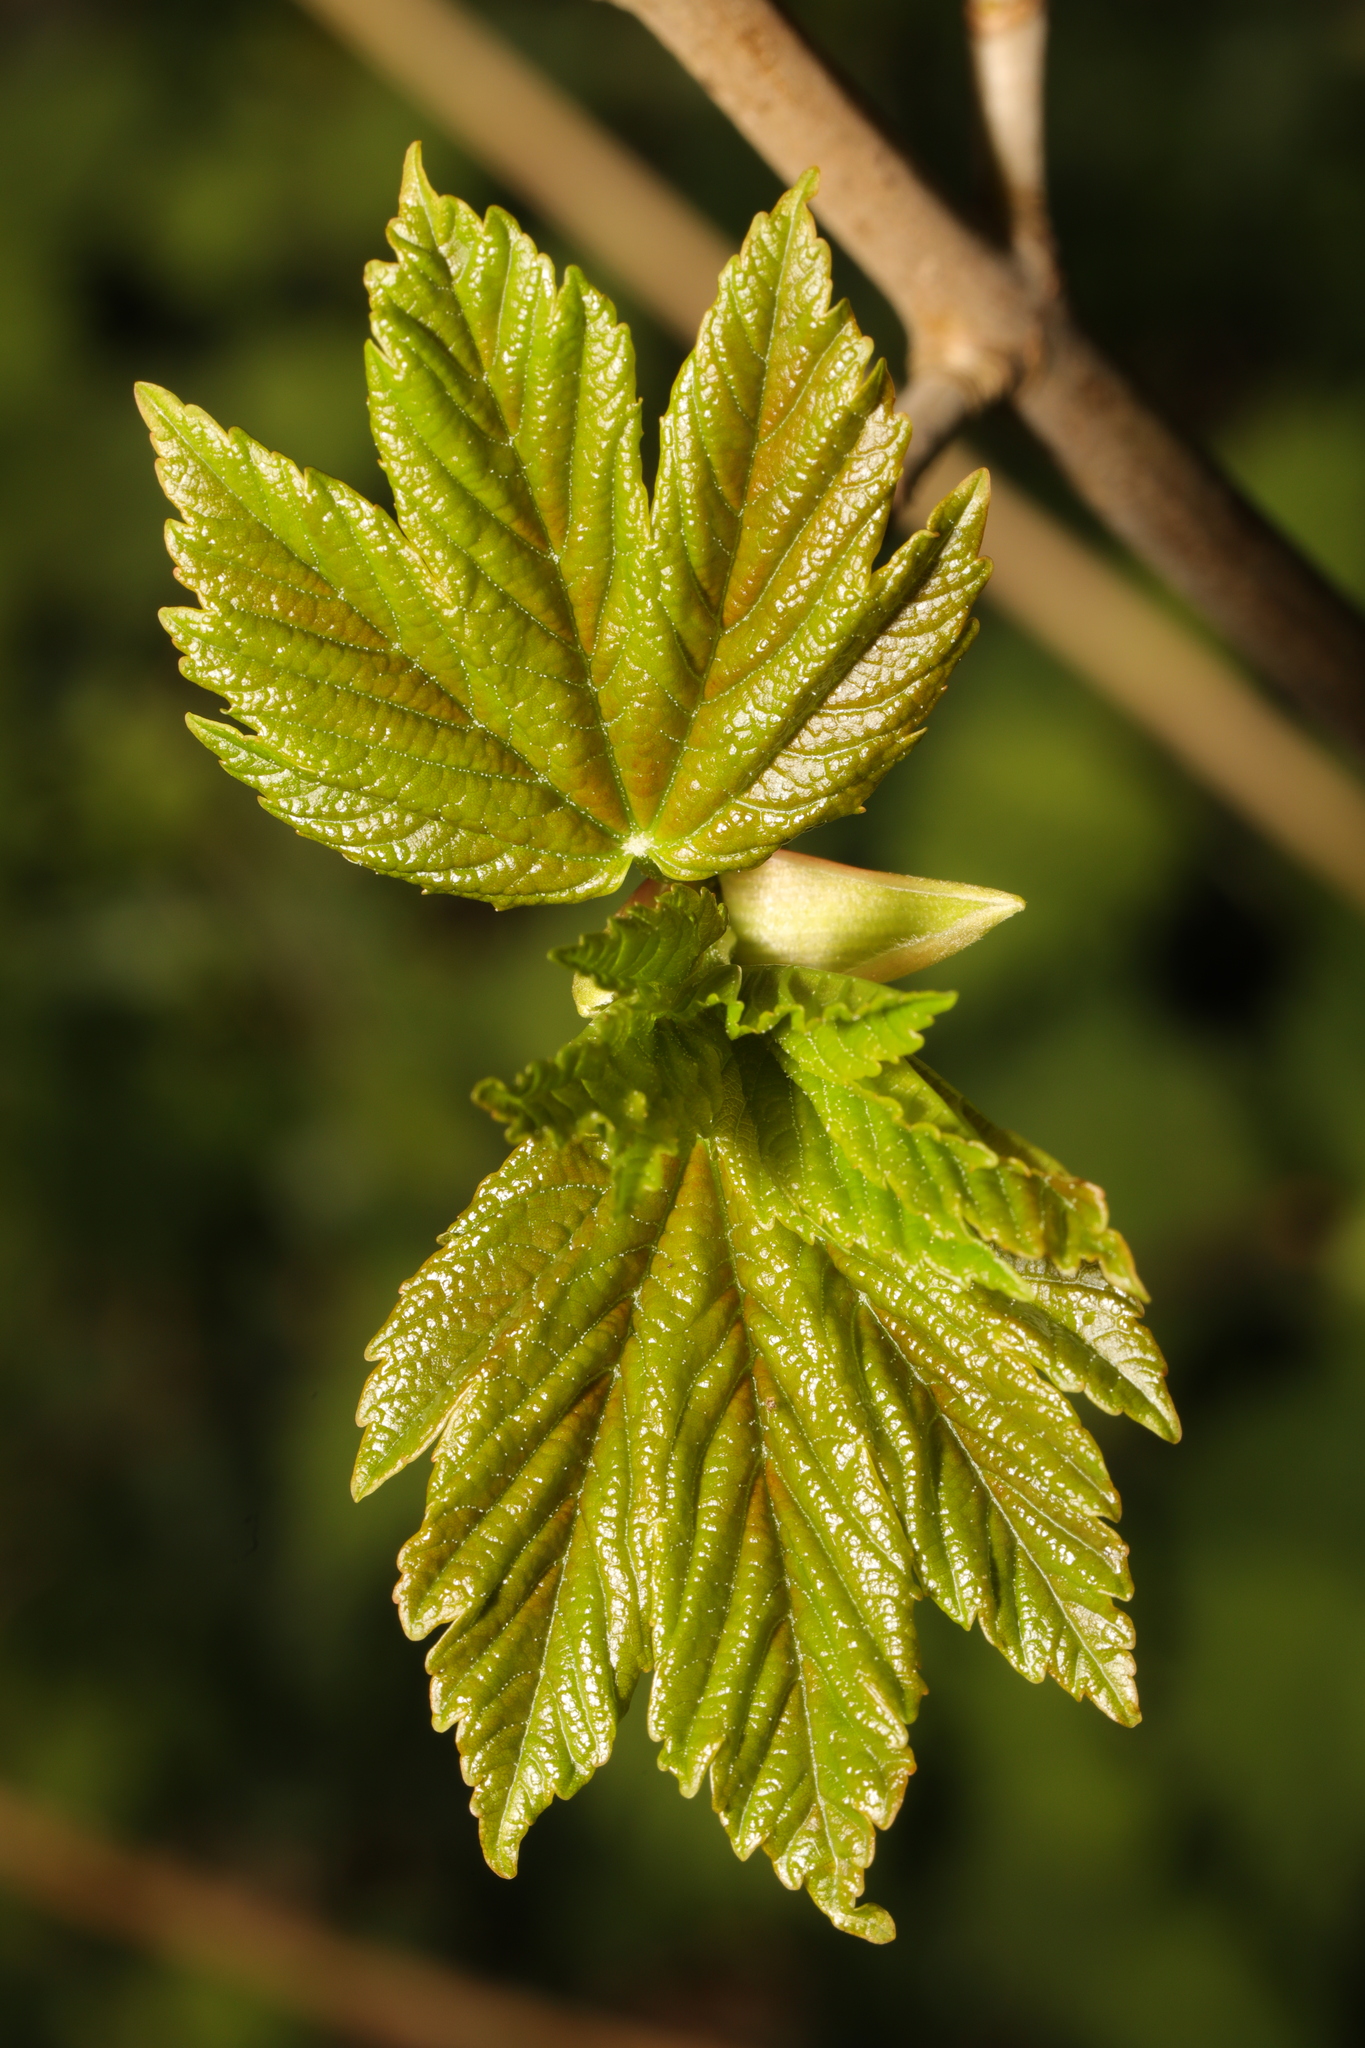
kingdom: Plantae
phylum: Tracheophyta
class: Magnoliopsida
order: Sapindales
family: Sapindaceae
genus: Acer
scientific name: Acer pseudoplatanus
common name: Sycamore
